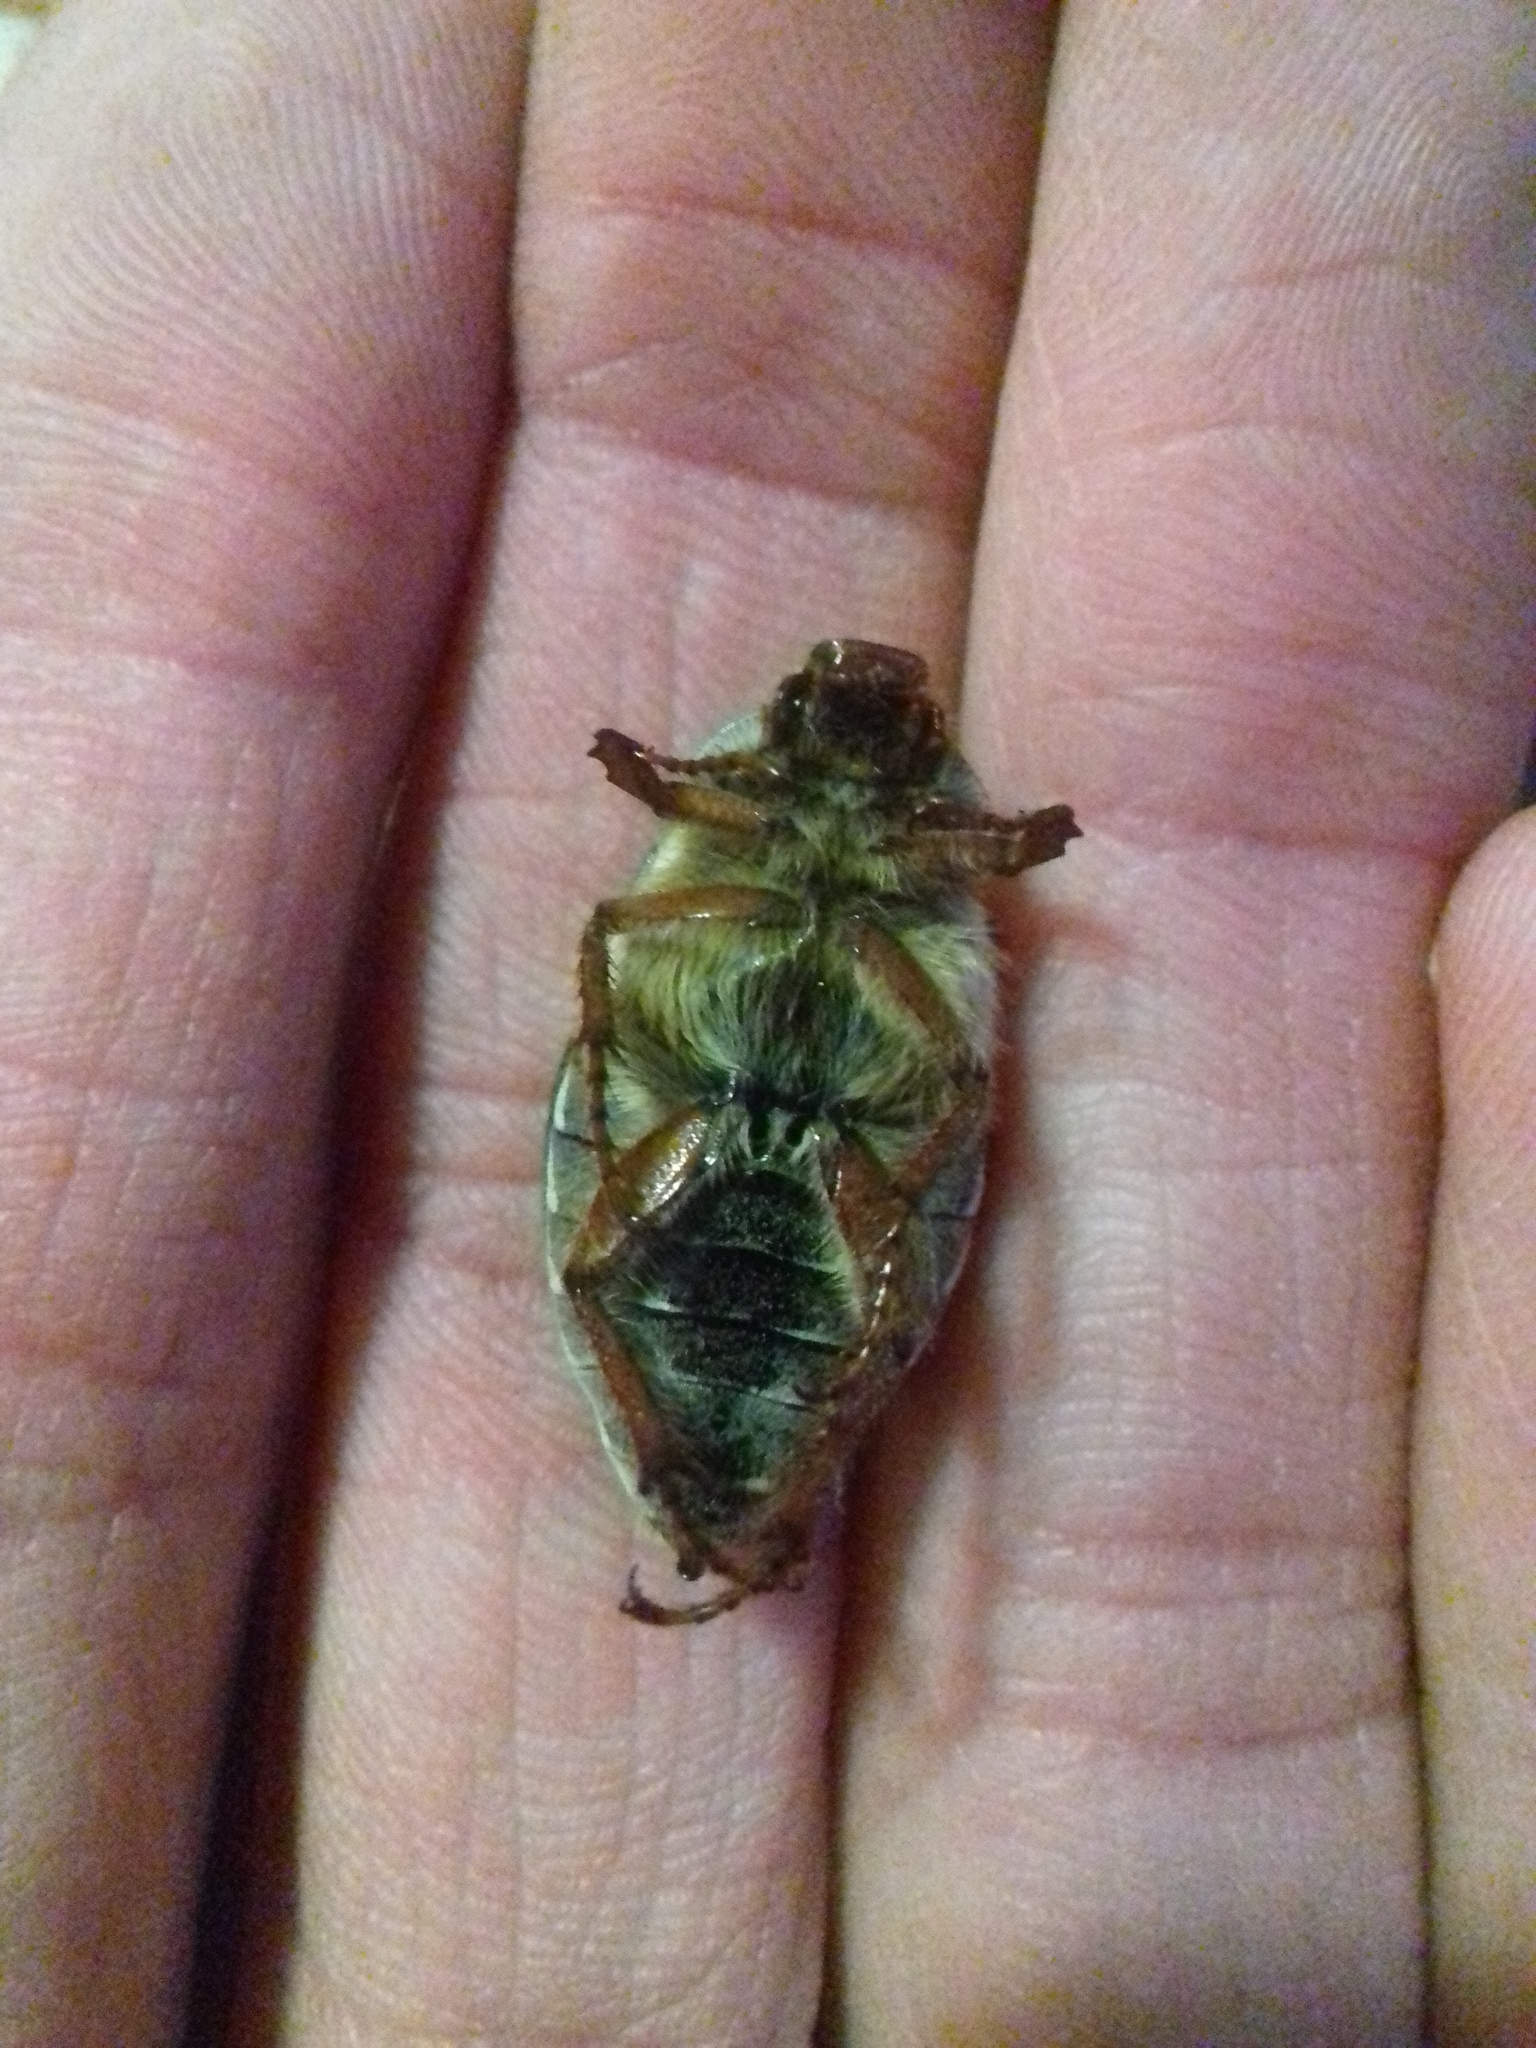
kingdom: Animalia
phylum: Arthropoda
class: Insecta
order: Coleoptera
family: Scarabaeidae
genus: Melolontha
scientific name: Melolontha hippocastani
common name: Chestnut cockchafer
